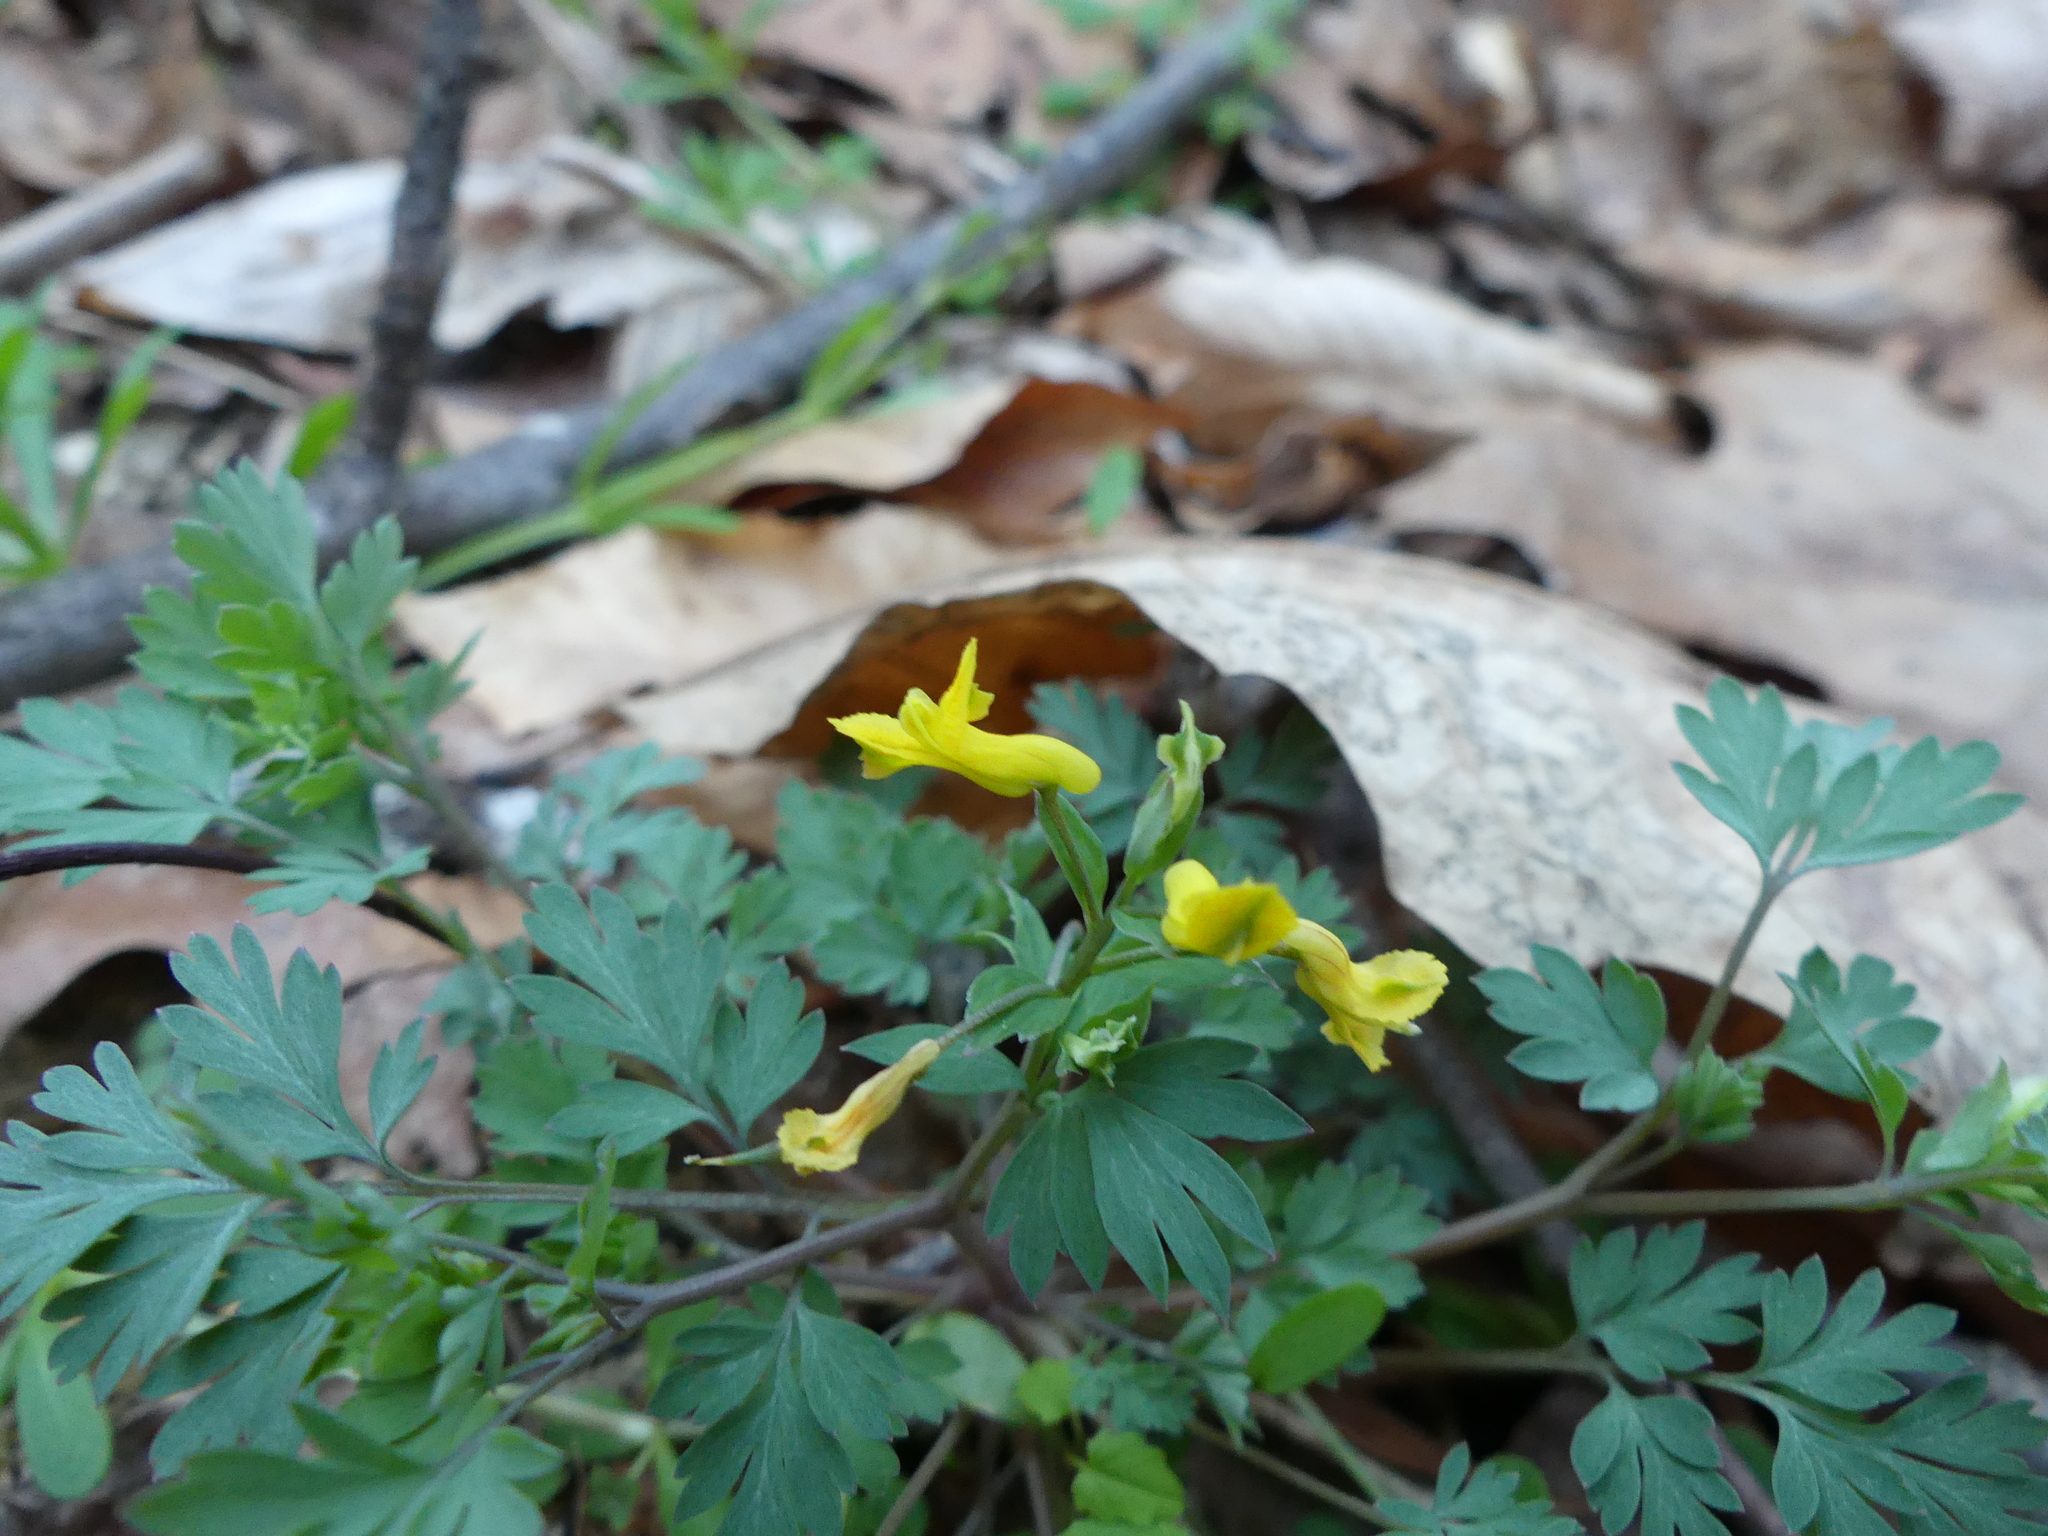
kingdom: Plantae
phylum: Tracheophyta
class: Magnoliopsida
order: Ranunculales
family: Papaveraceae
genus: Corydalis
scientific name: Corydalis flavula
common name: Yellow corydalis
